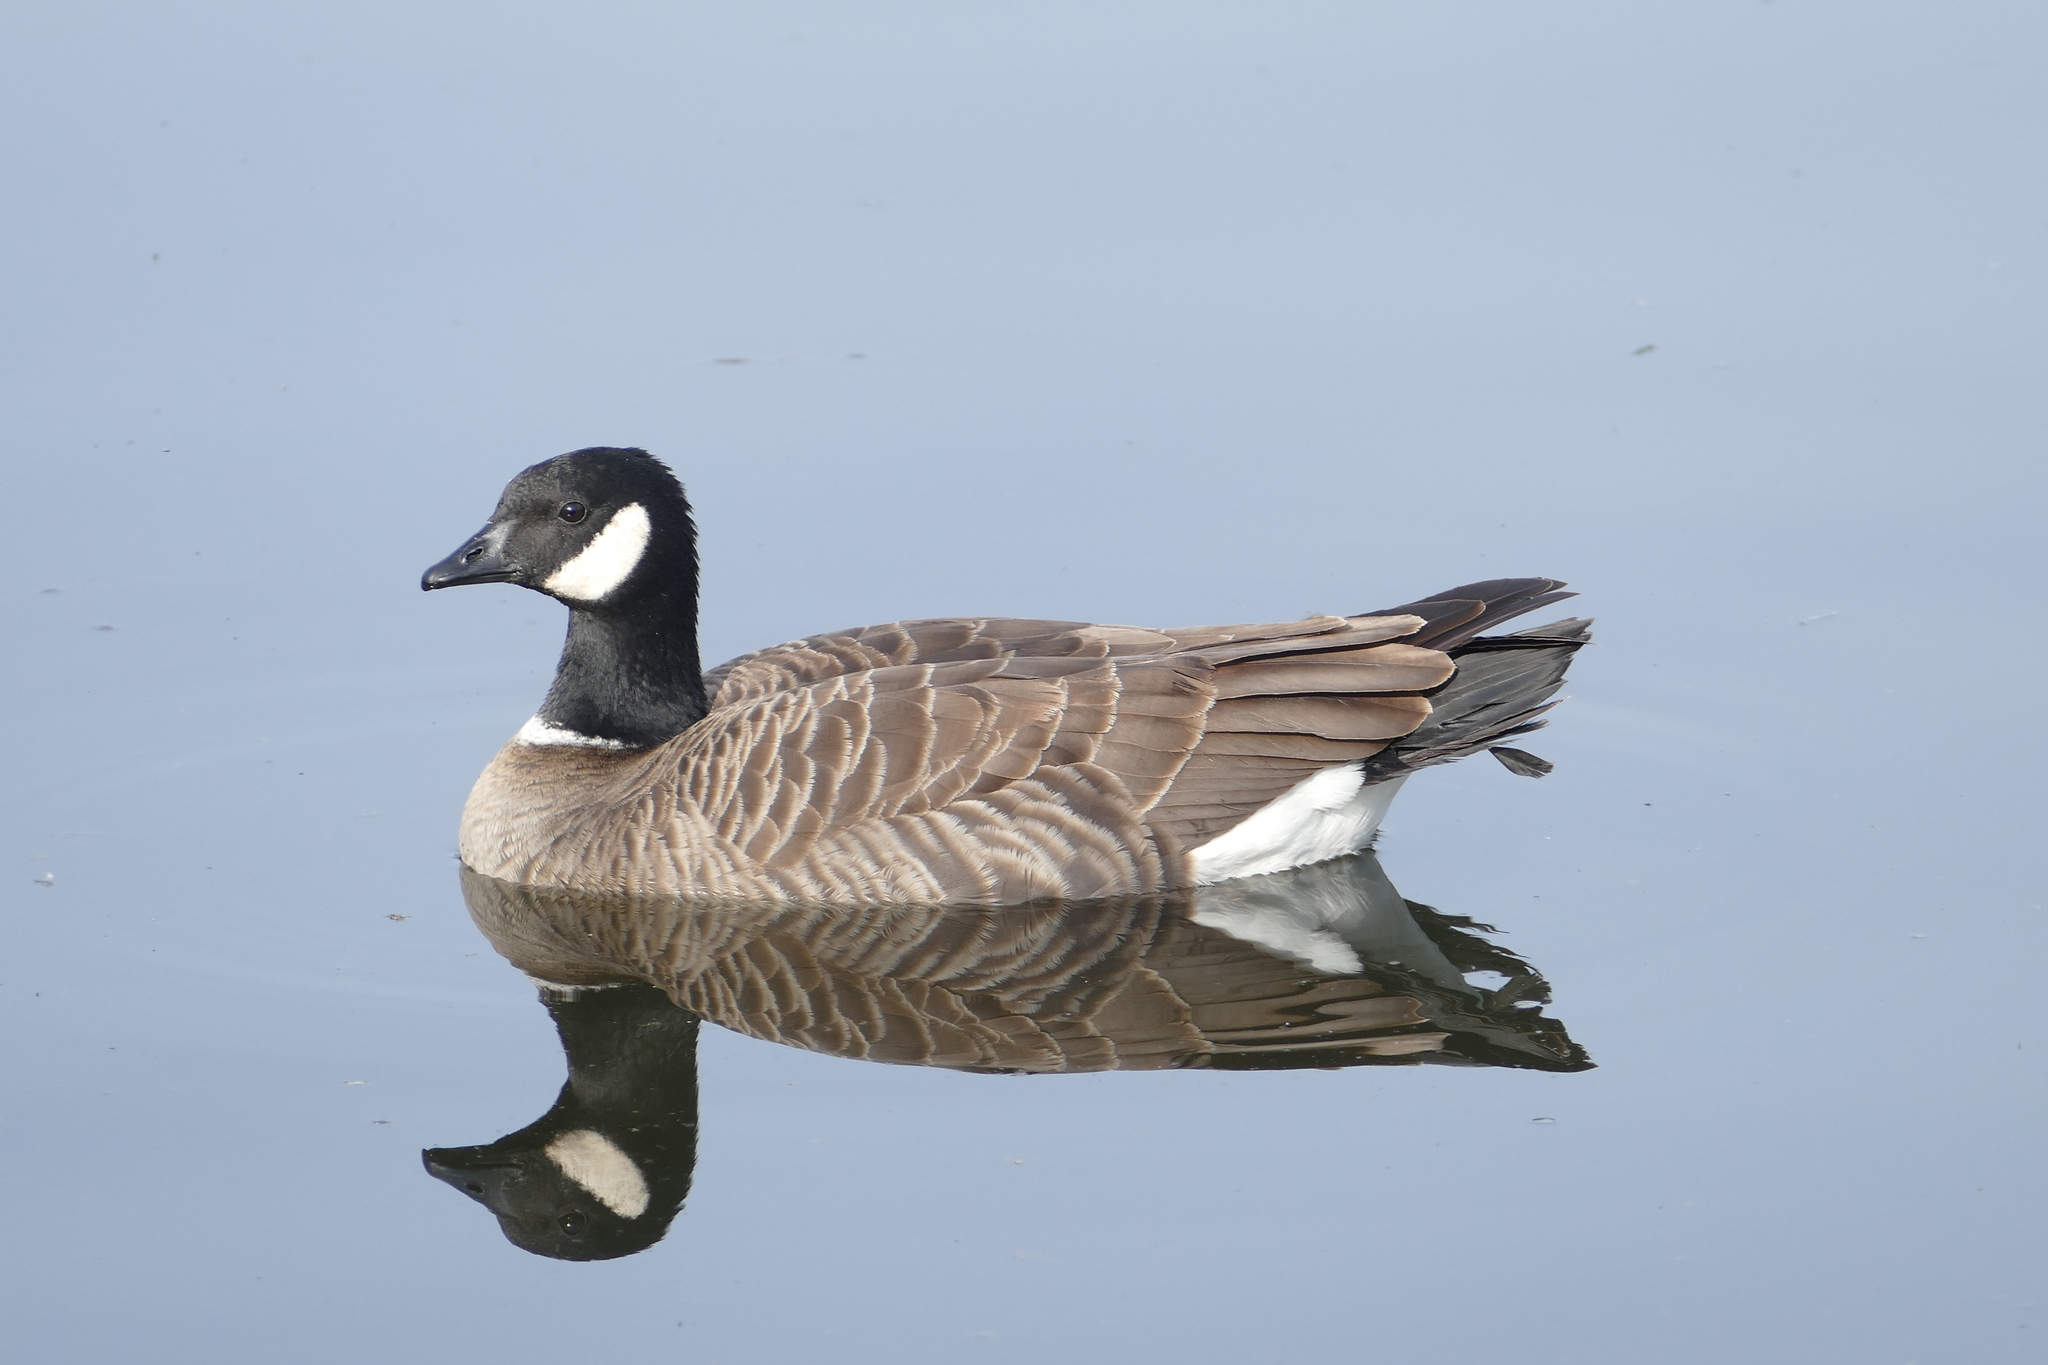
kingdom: Animalia
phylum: Chordata
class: Aves
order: Anseriformes
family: Anatidae
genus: Branta
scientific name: Branta hutchinsii
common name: Cackling goose
